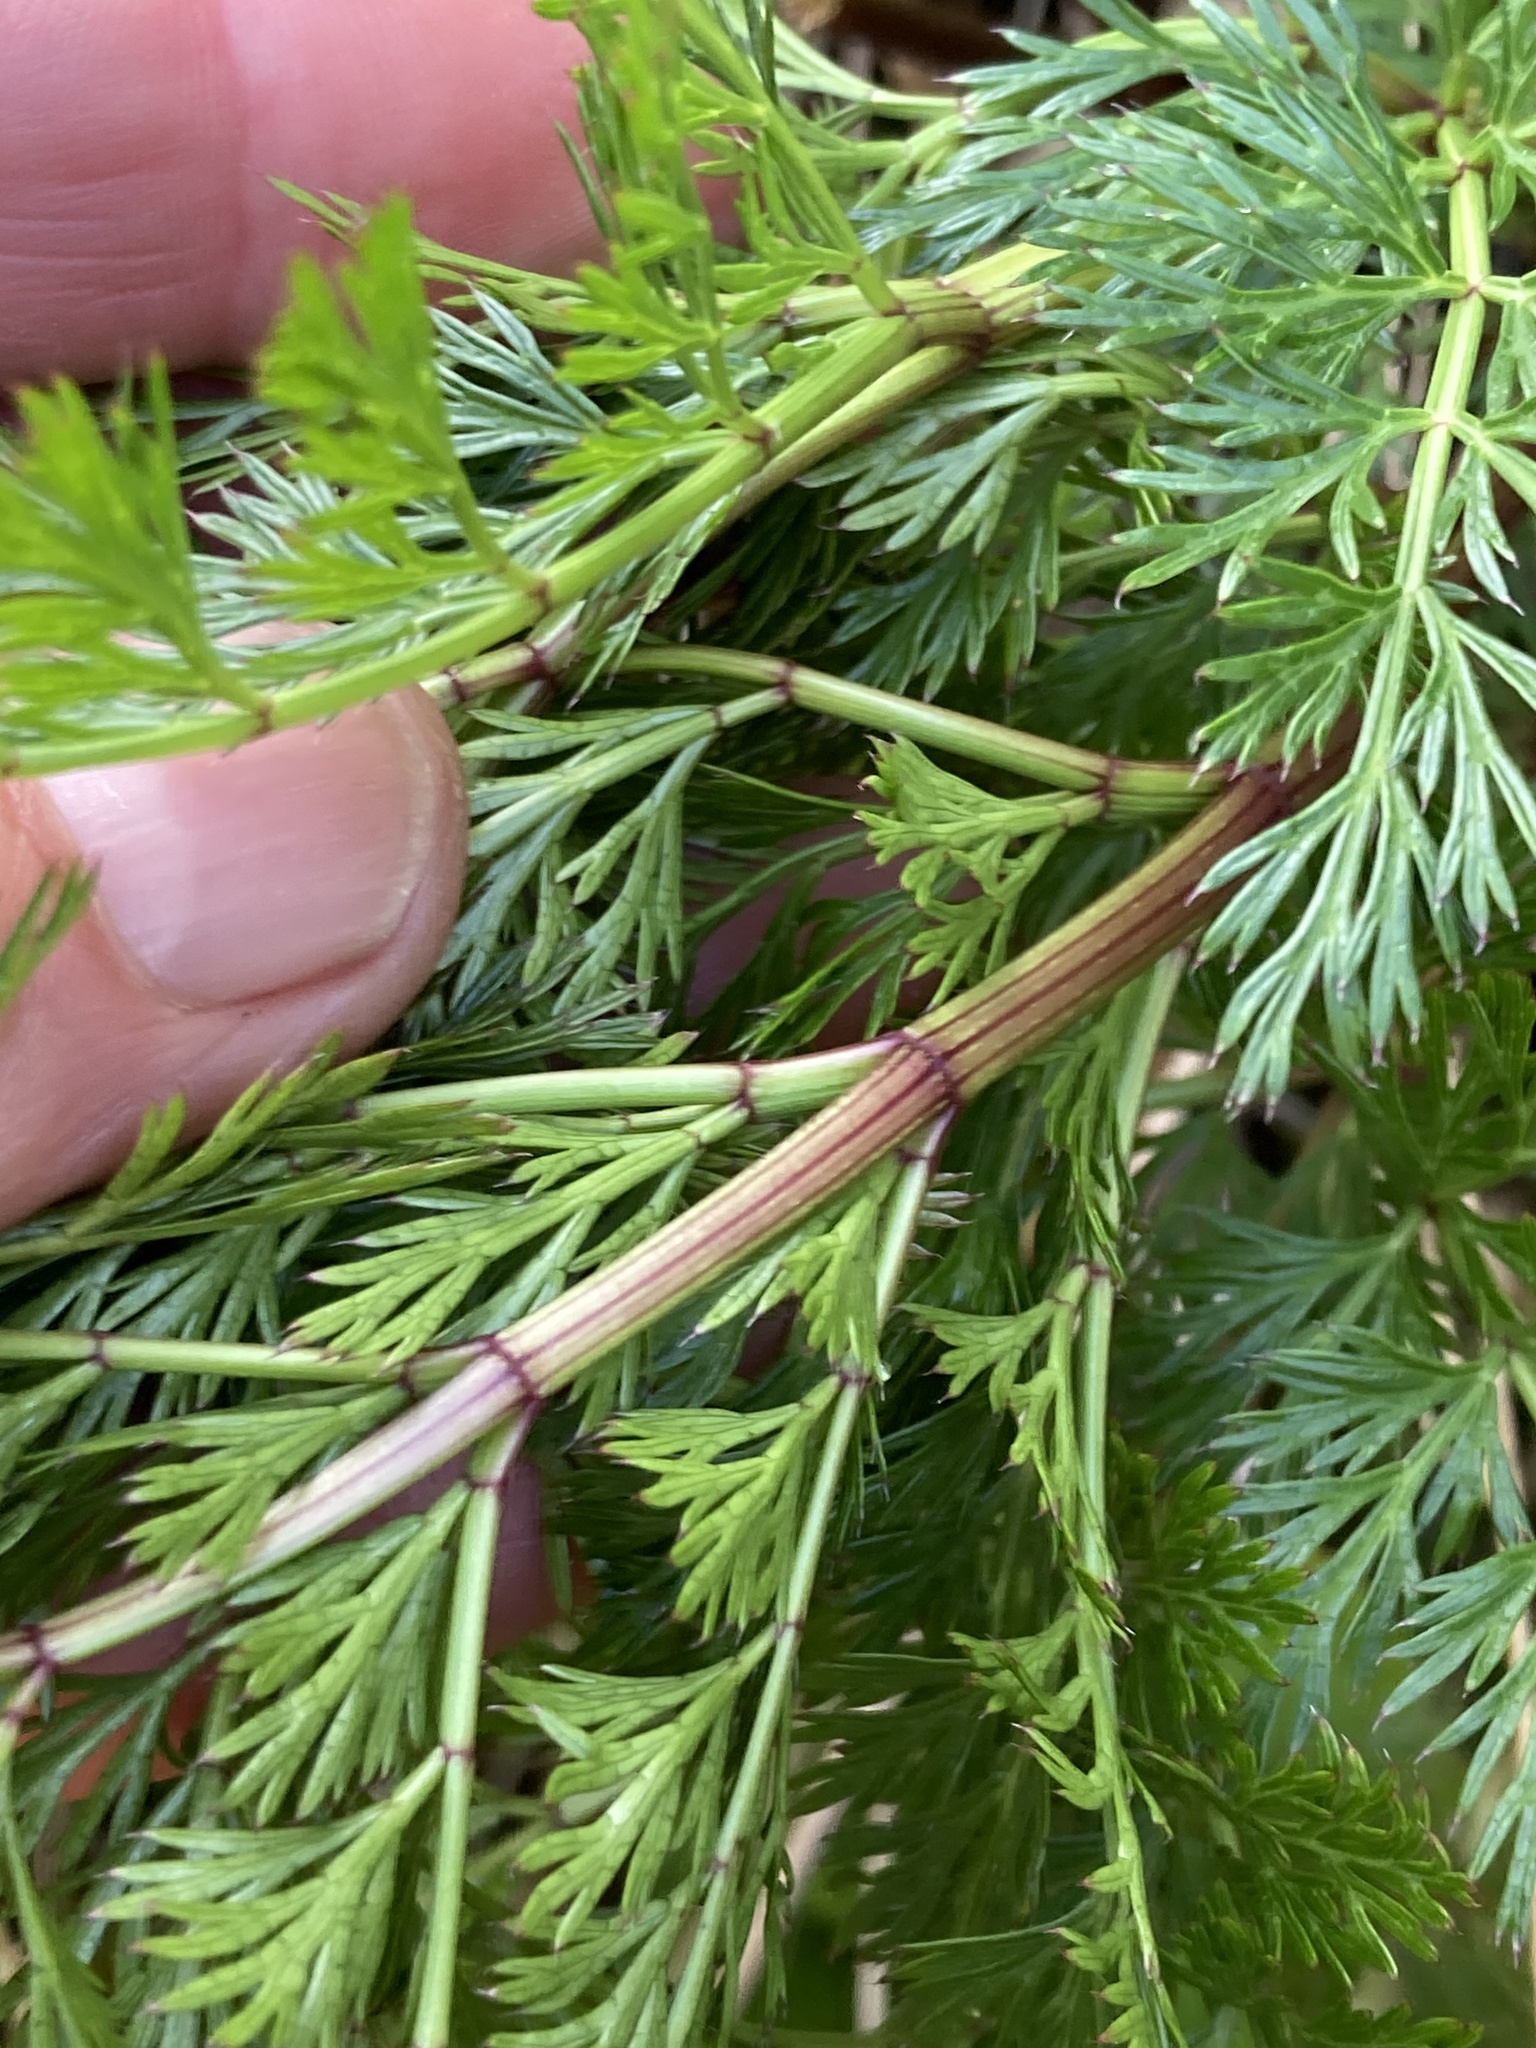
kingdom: Plantae
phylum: Tracheophyta
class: Magnoliopsida
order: Apiales
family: Apiaceae
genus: Anisotome
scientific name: Anisotome haastii
